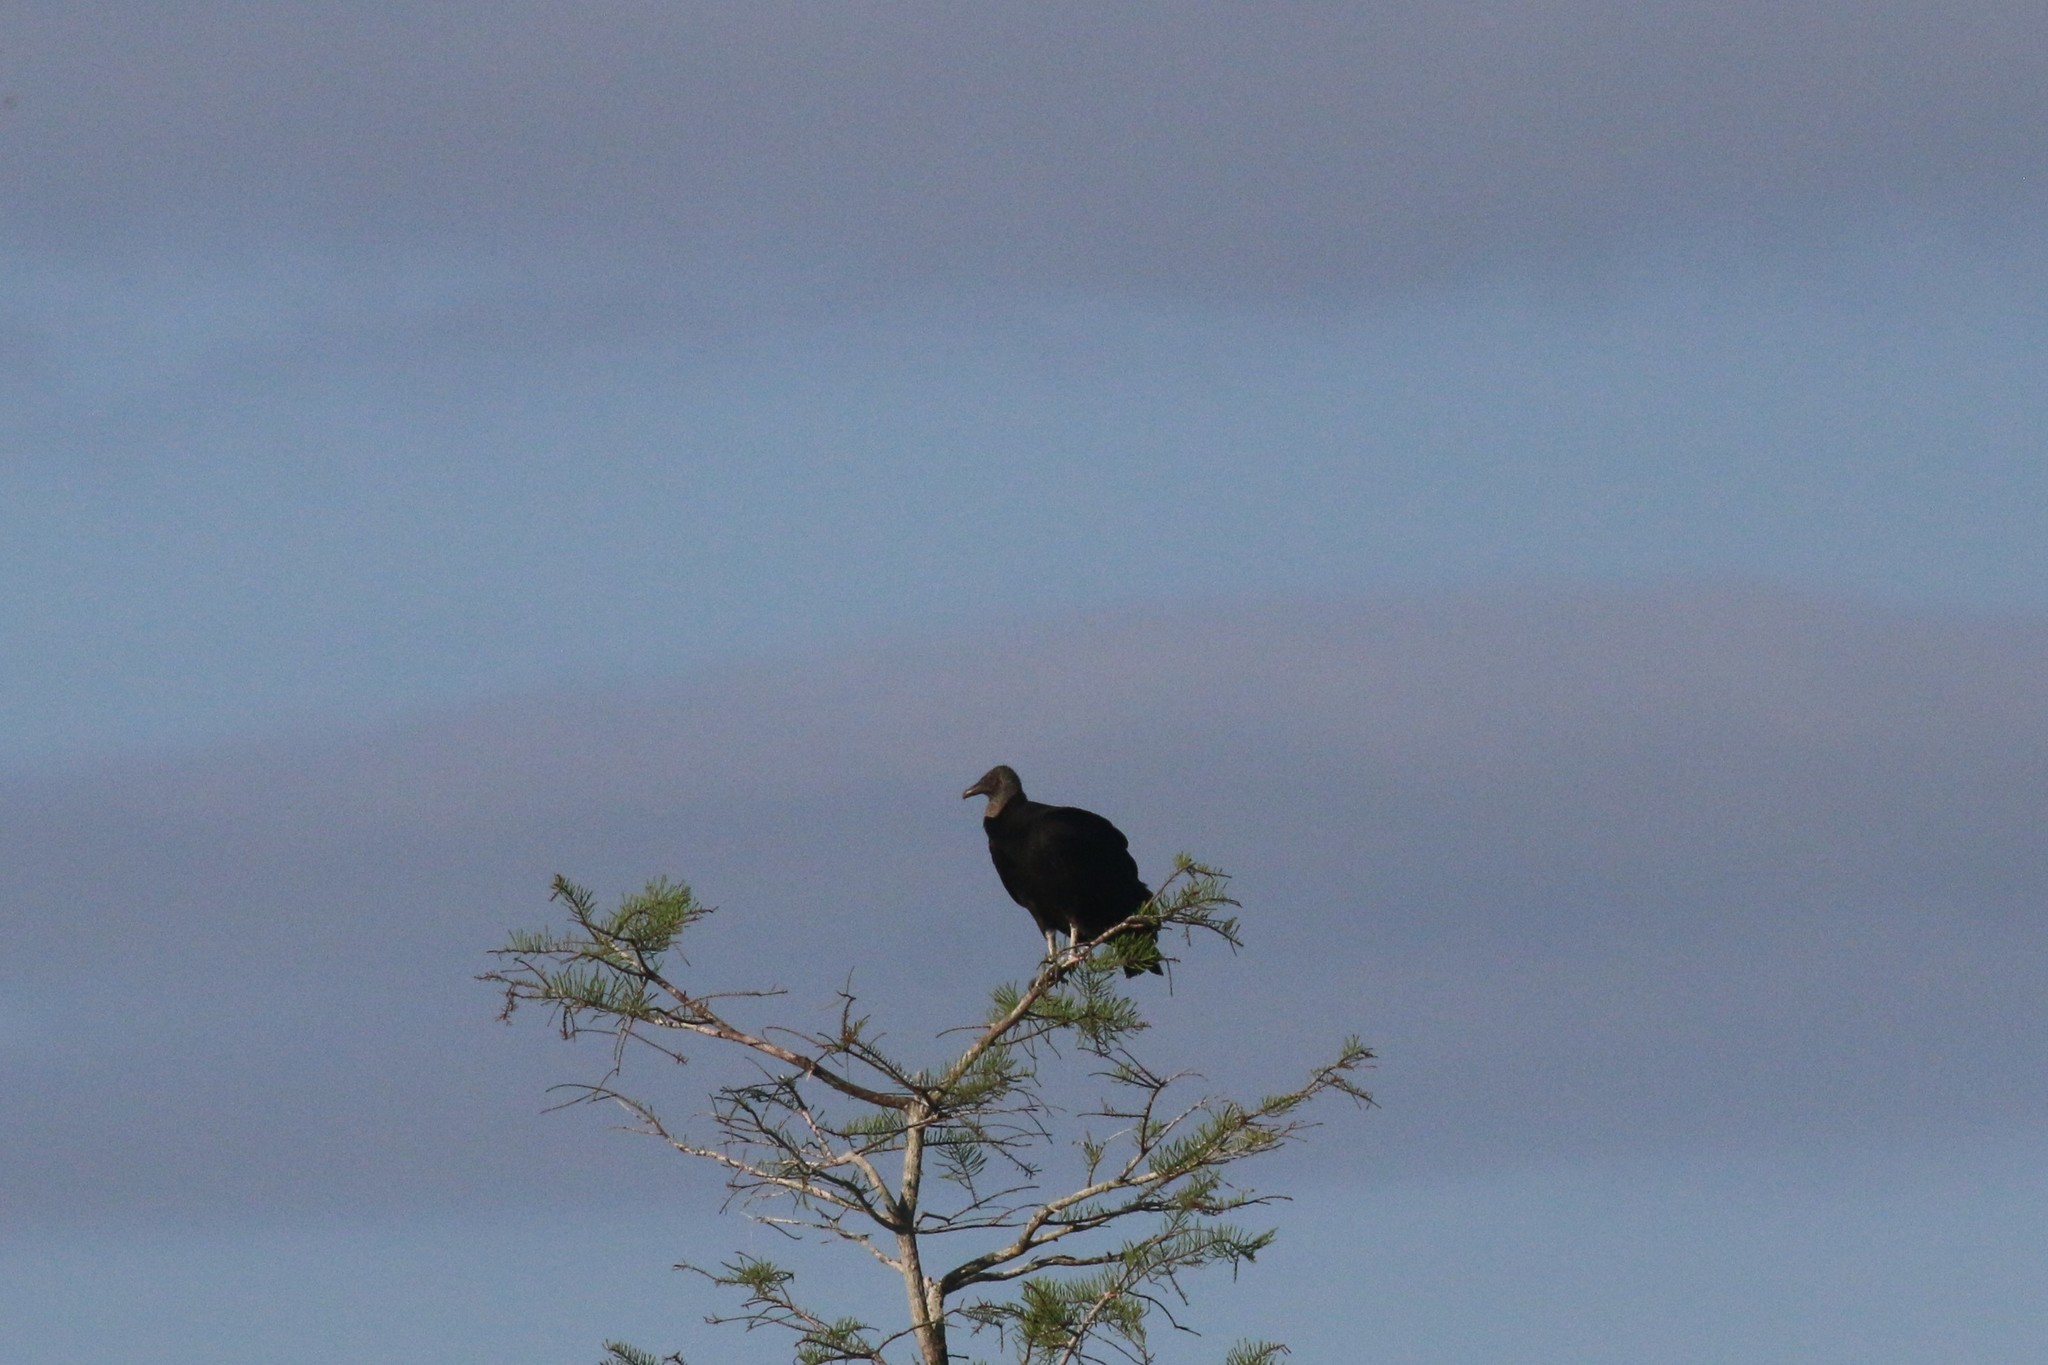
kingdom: Animalia
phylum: Chordata
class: Aves
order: Accipitriformes
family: Cathartidae
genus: Coragyps
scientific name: Coragyps atratus
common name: Black vulture
